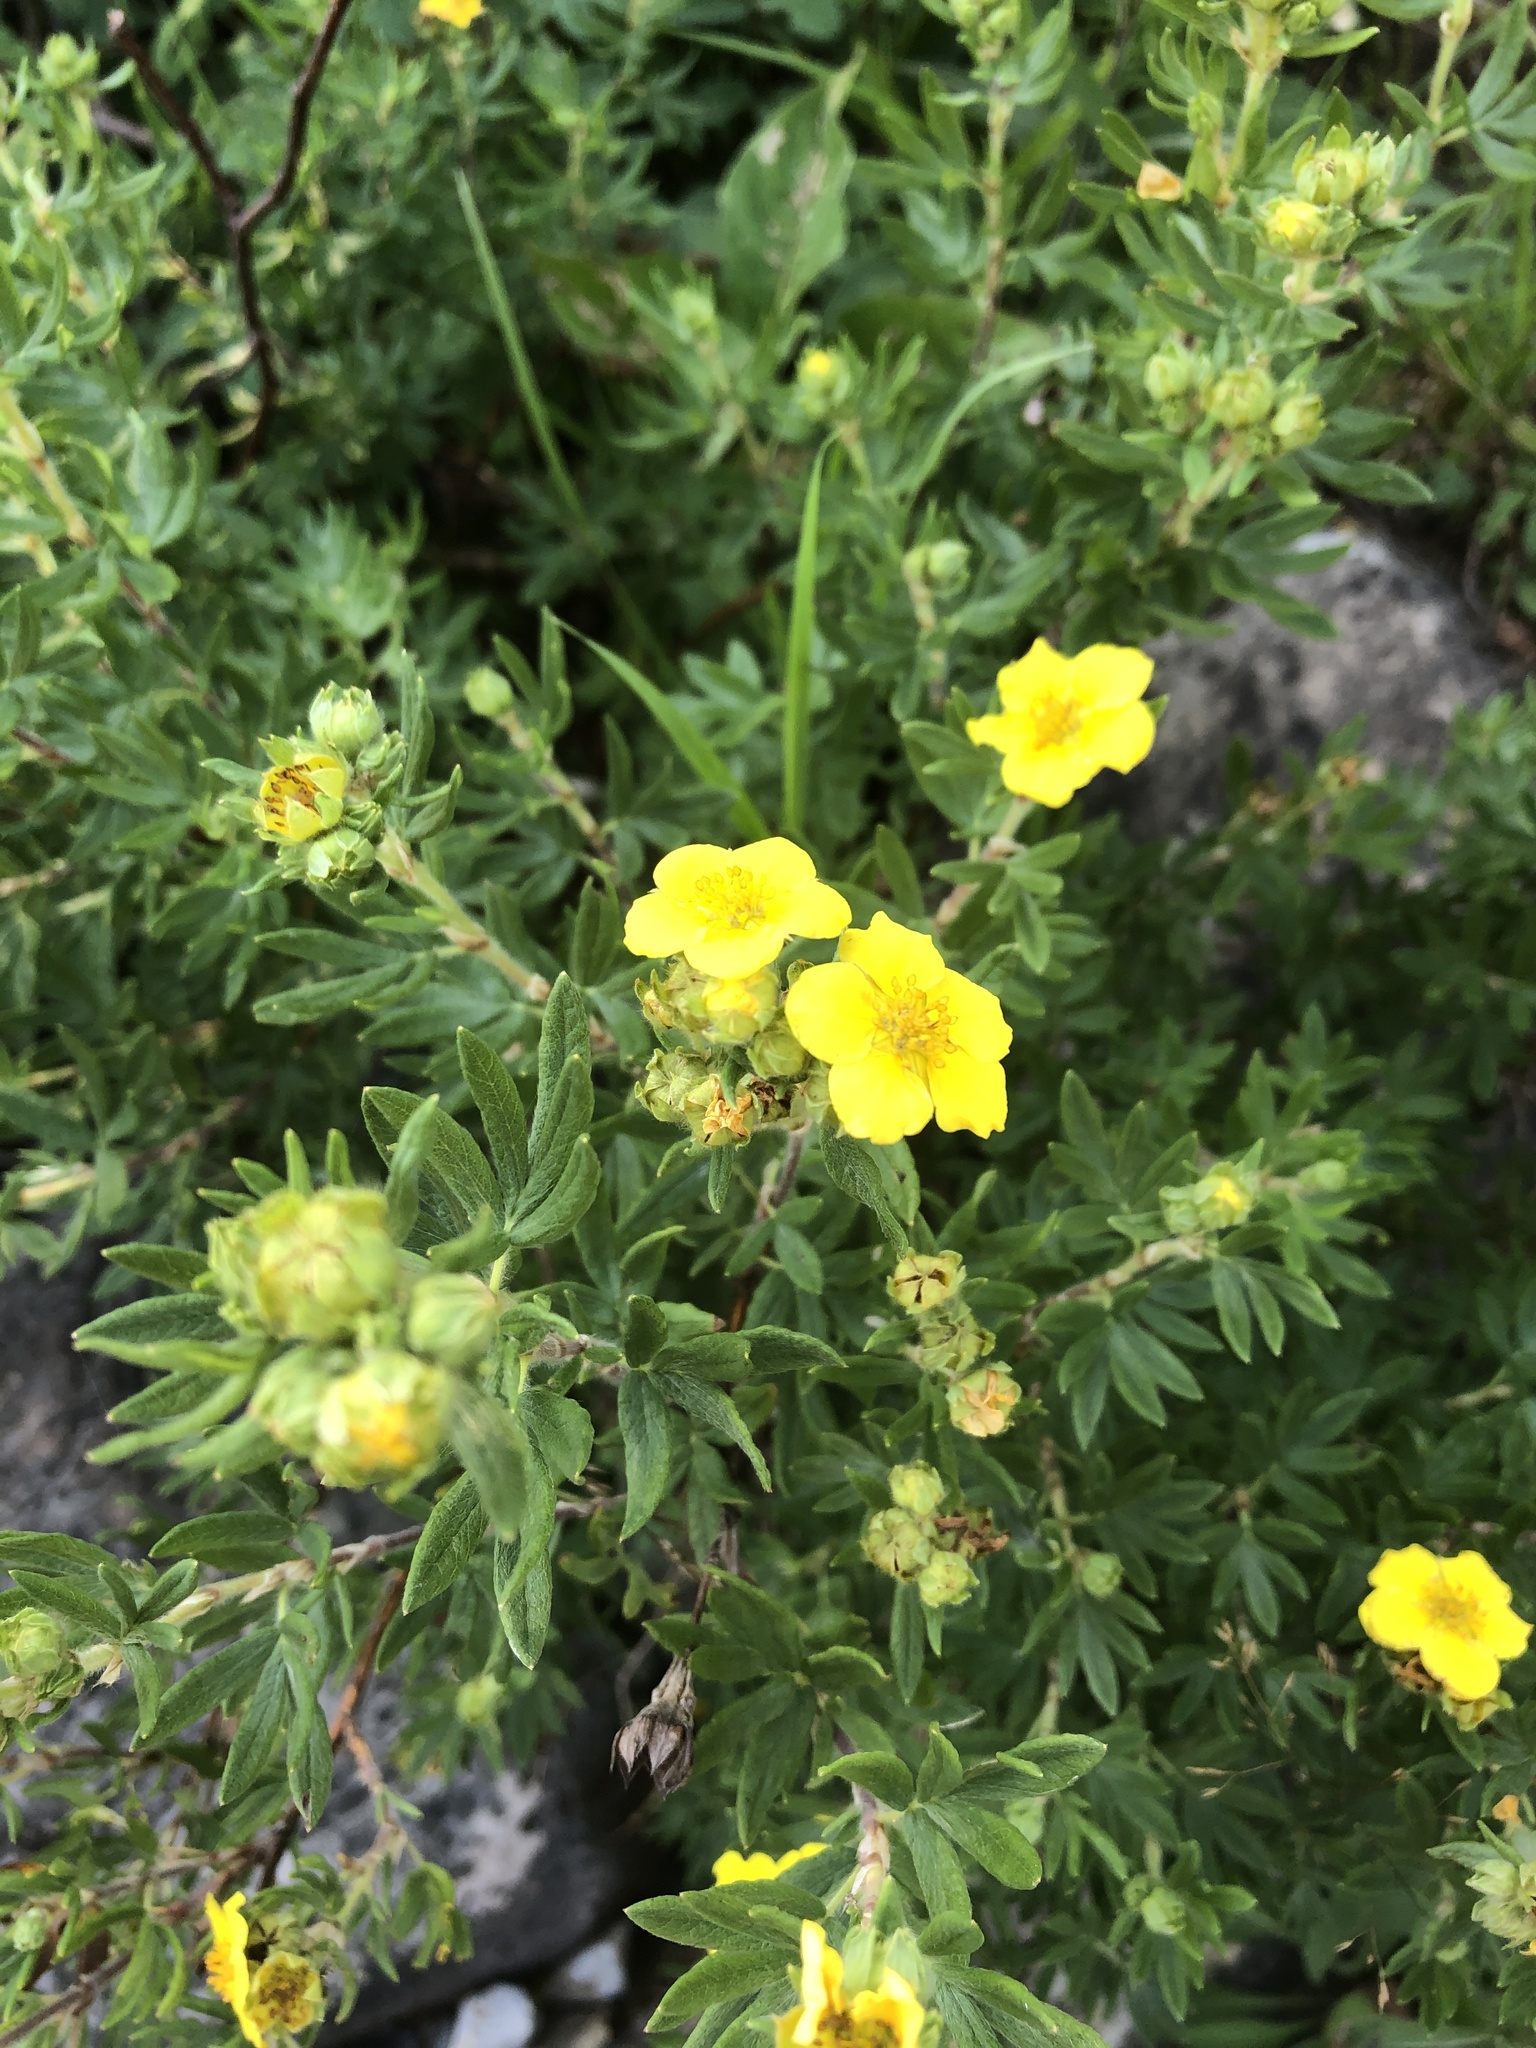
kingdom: Plantae
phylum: Tracheophyta
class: Magnoliopsida
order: Rosales
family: Rosaceae
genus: Dasiphora
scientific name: Dasiphora fruticosa
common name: Shrubby cinquefoil
